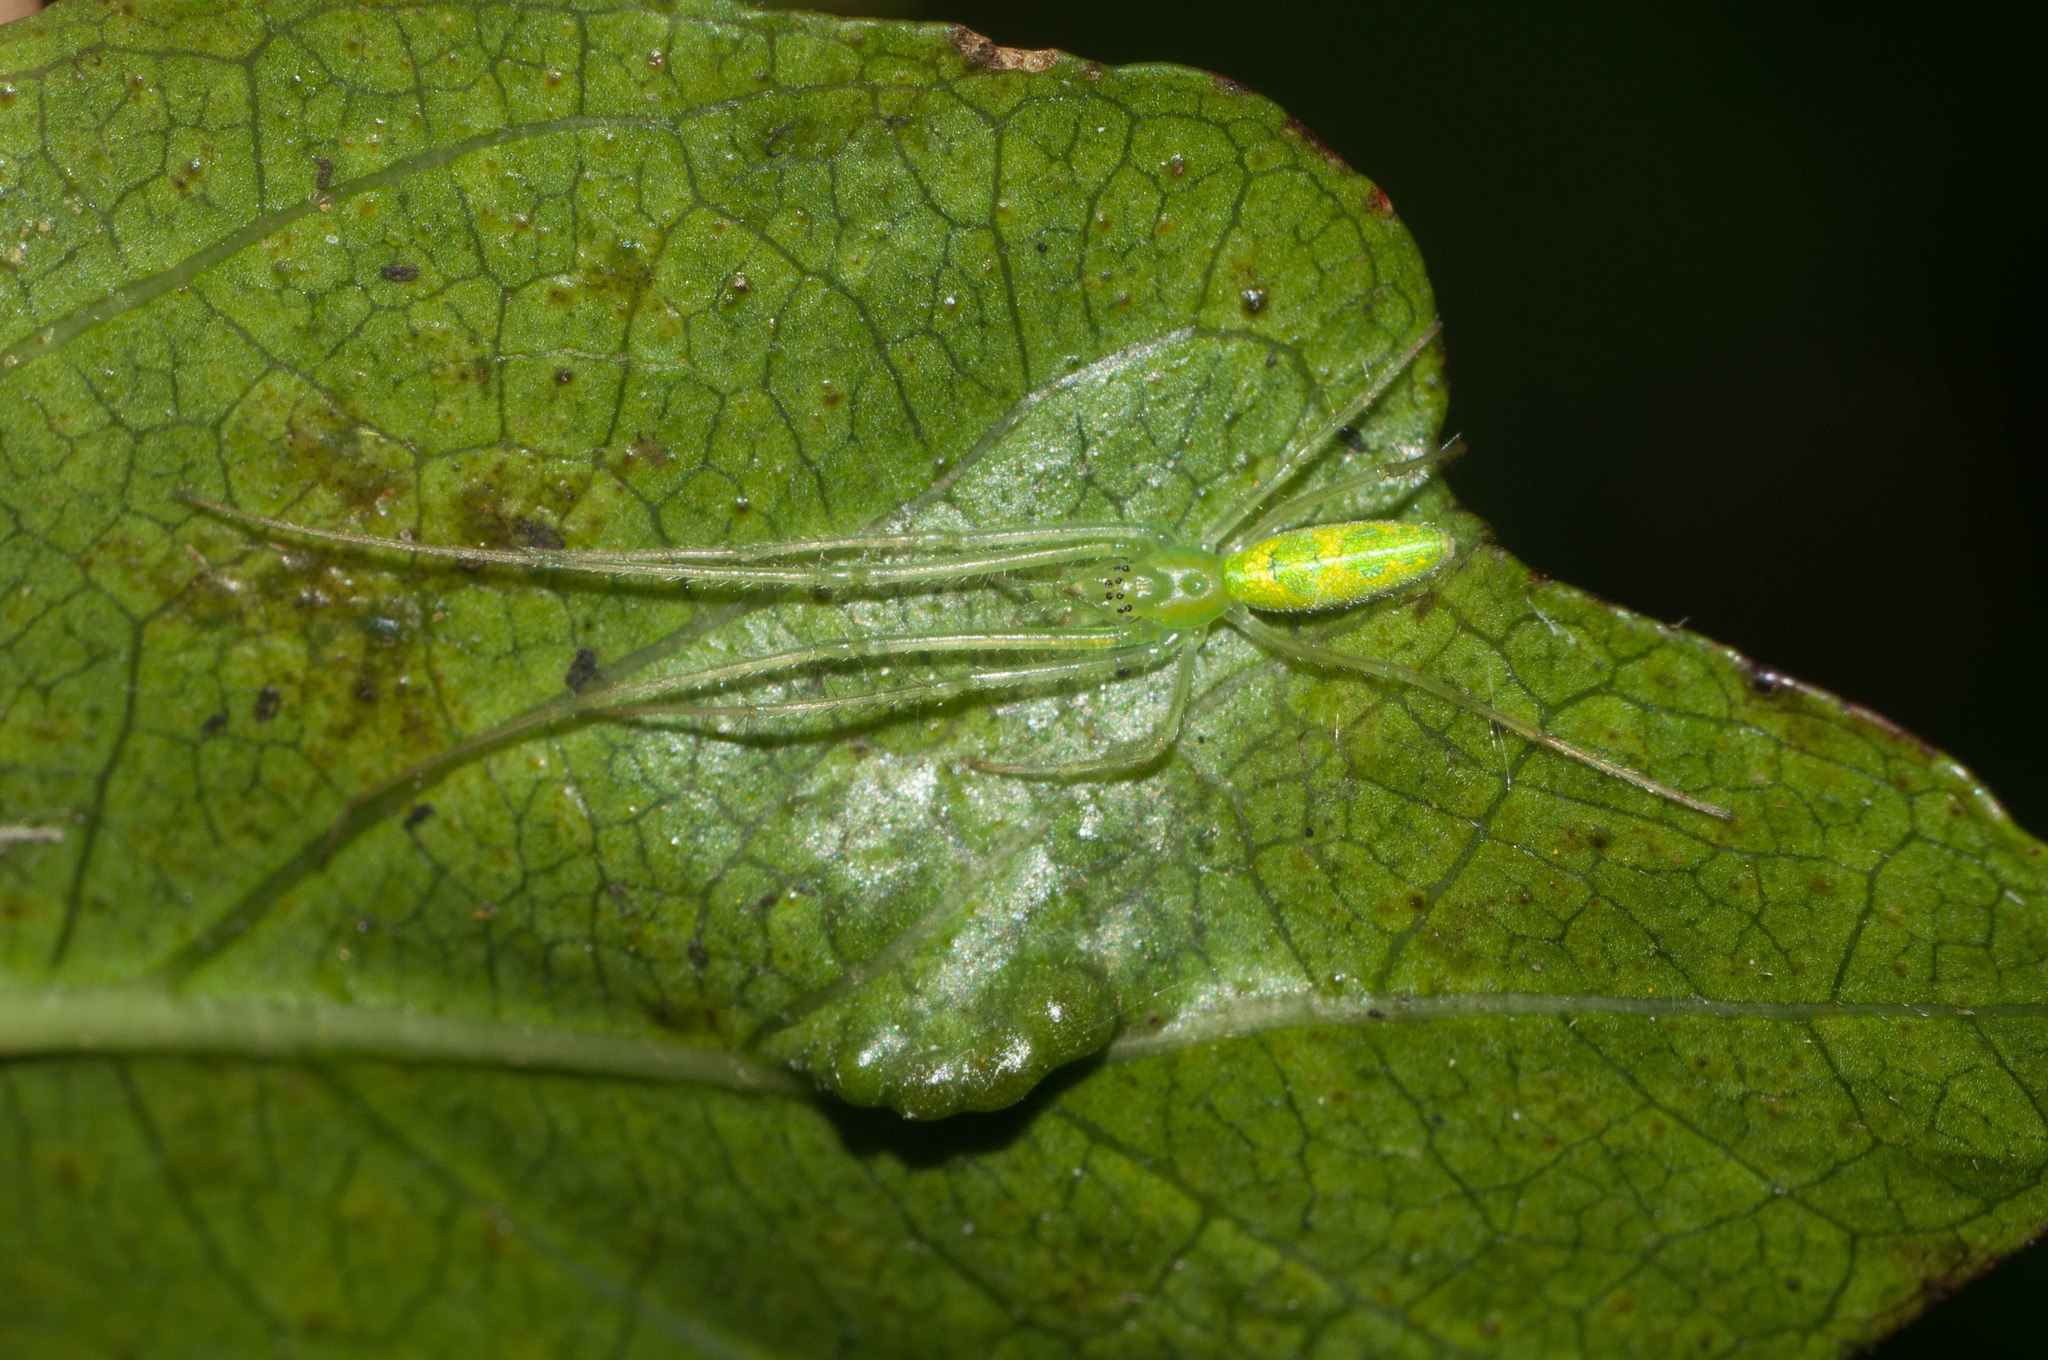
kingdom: Animalia
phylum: Arthropoda
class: Arachnida
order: Araneae
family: Tetragnathidae
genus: Tetragnatha
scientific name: Tetragnatha tantalus
